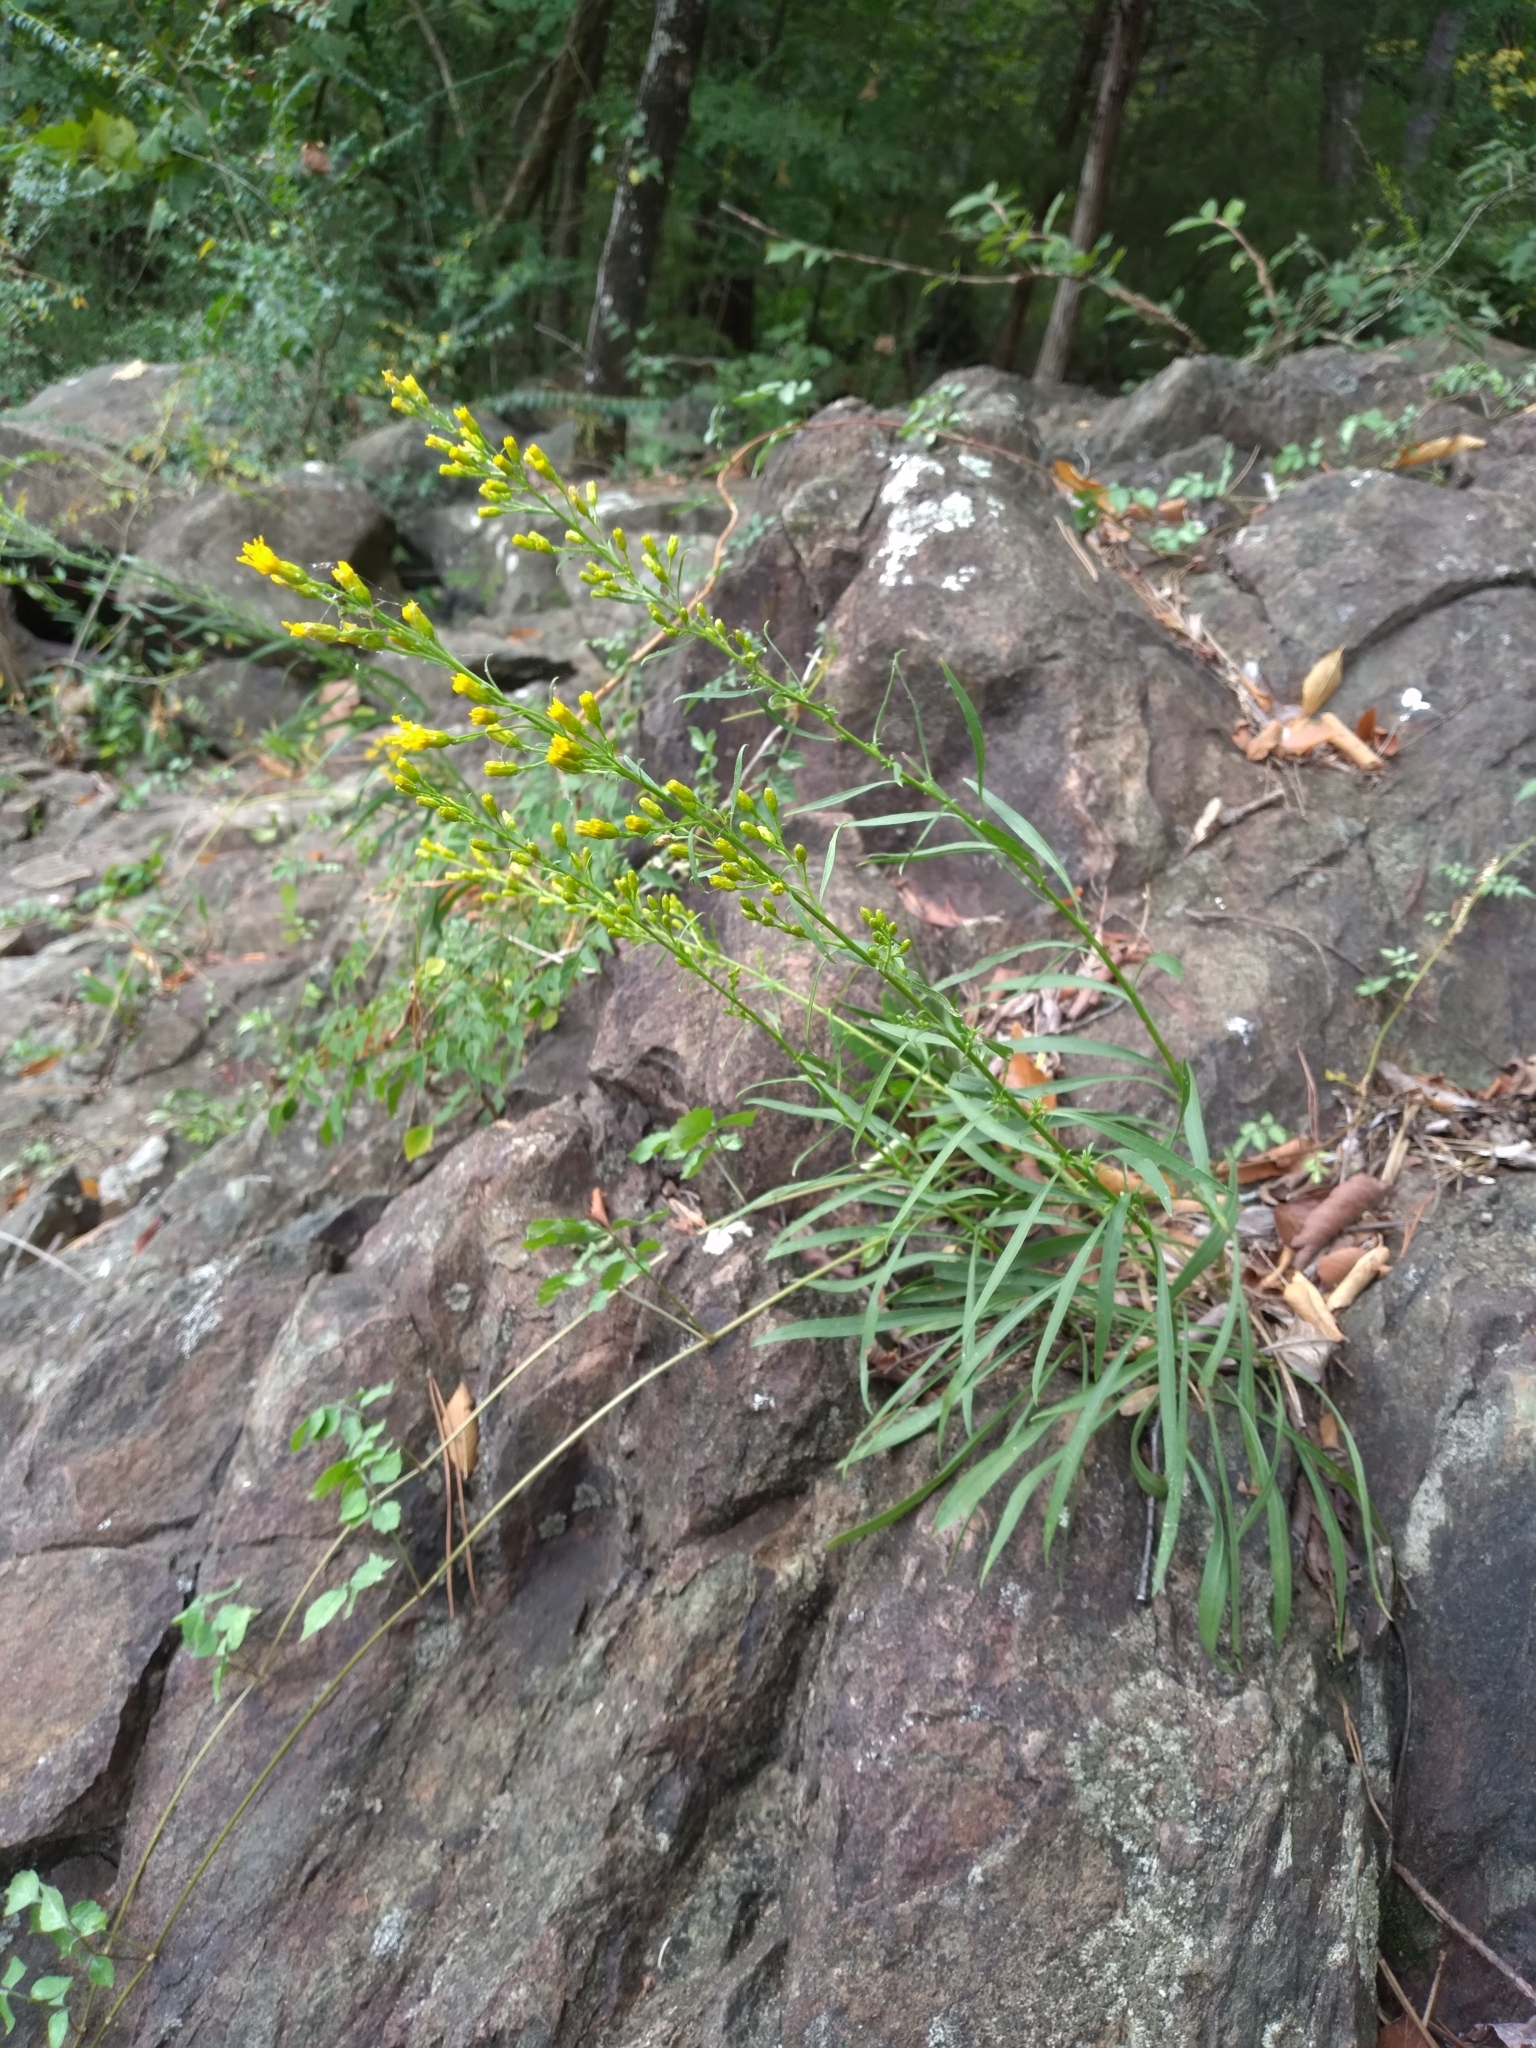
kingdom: Plantae
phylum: Tracheophyta
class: Magnoliopsida
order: Asterales
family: Asteraceae
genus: Solidago
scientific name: Solidago plumosa
